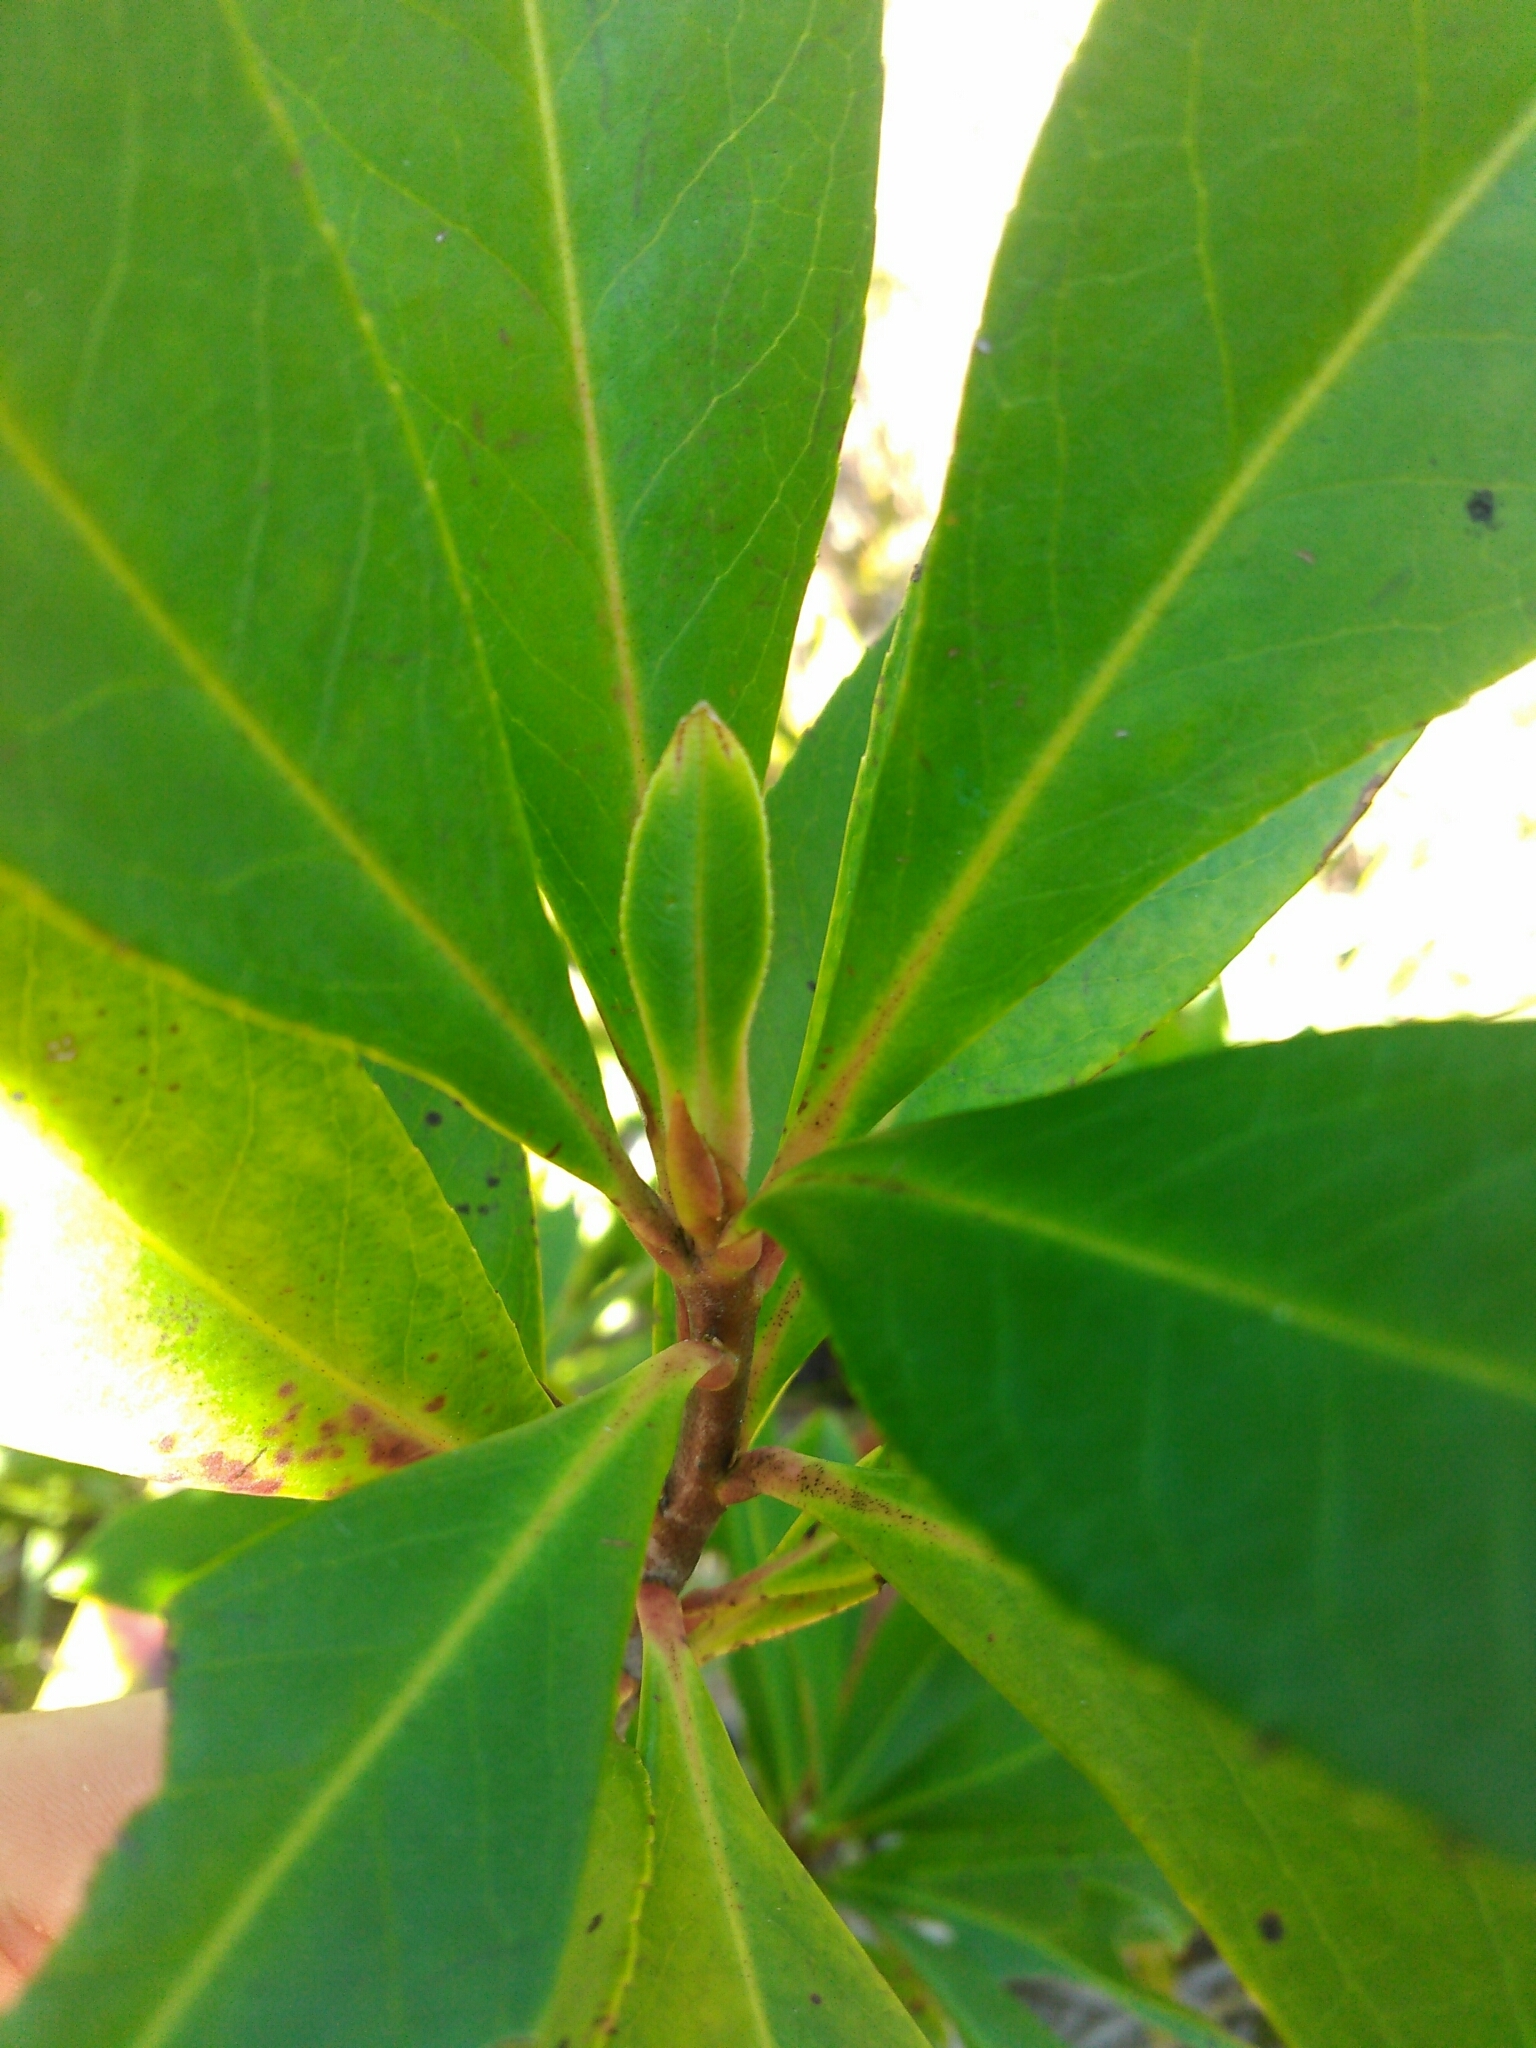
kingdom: Plantae
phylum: Tracheophyta
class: Magnoliopsida
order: Ericales
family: Theaceae
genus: Gordonia
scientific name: Gordonia lasianthus
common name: Loblolly bay
